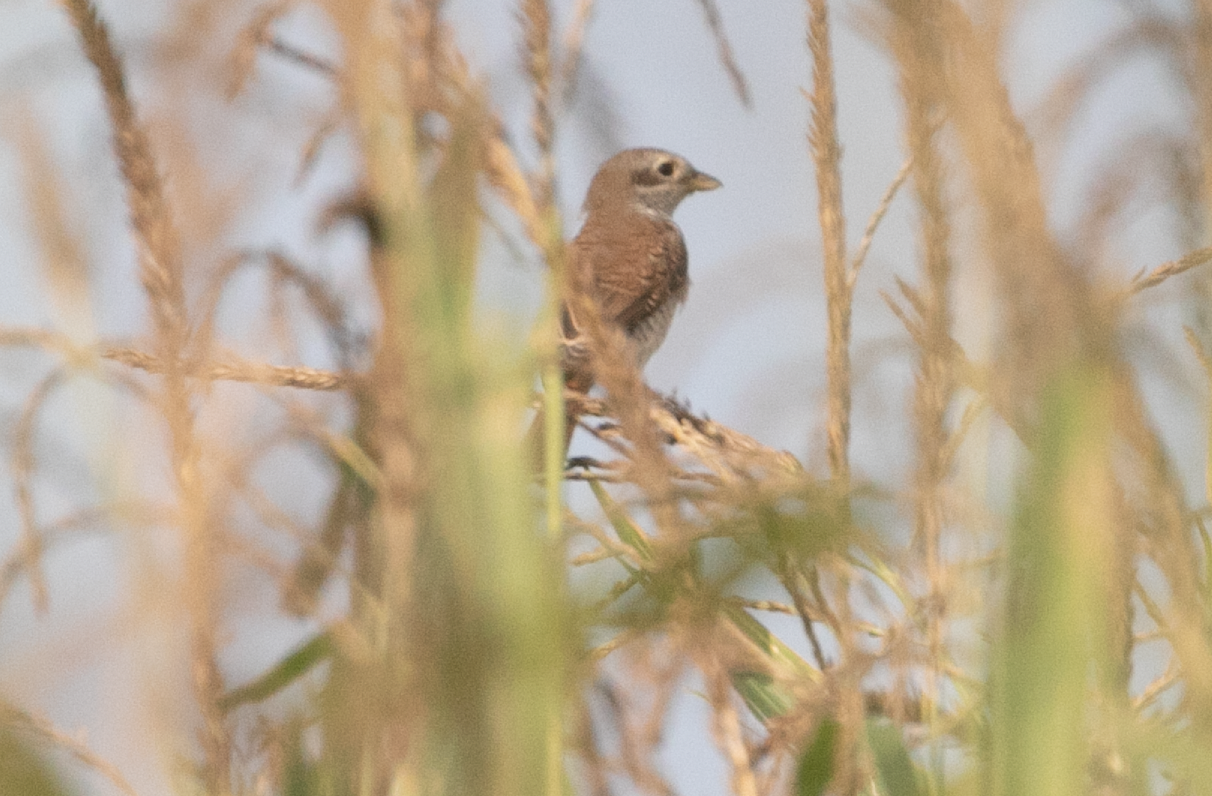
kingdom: Animalia
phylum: Chordata
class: Aves
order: Passeriformes
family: Laniidae
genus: Lanius
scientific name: Lanius collurio
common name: Red-backed shrike
